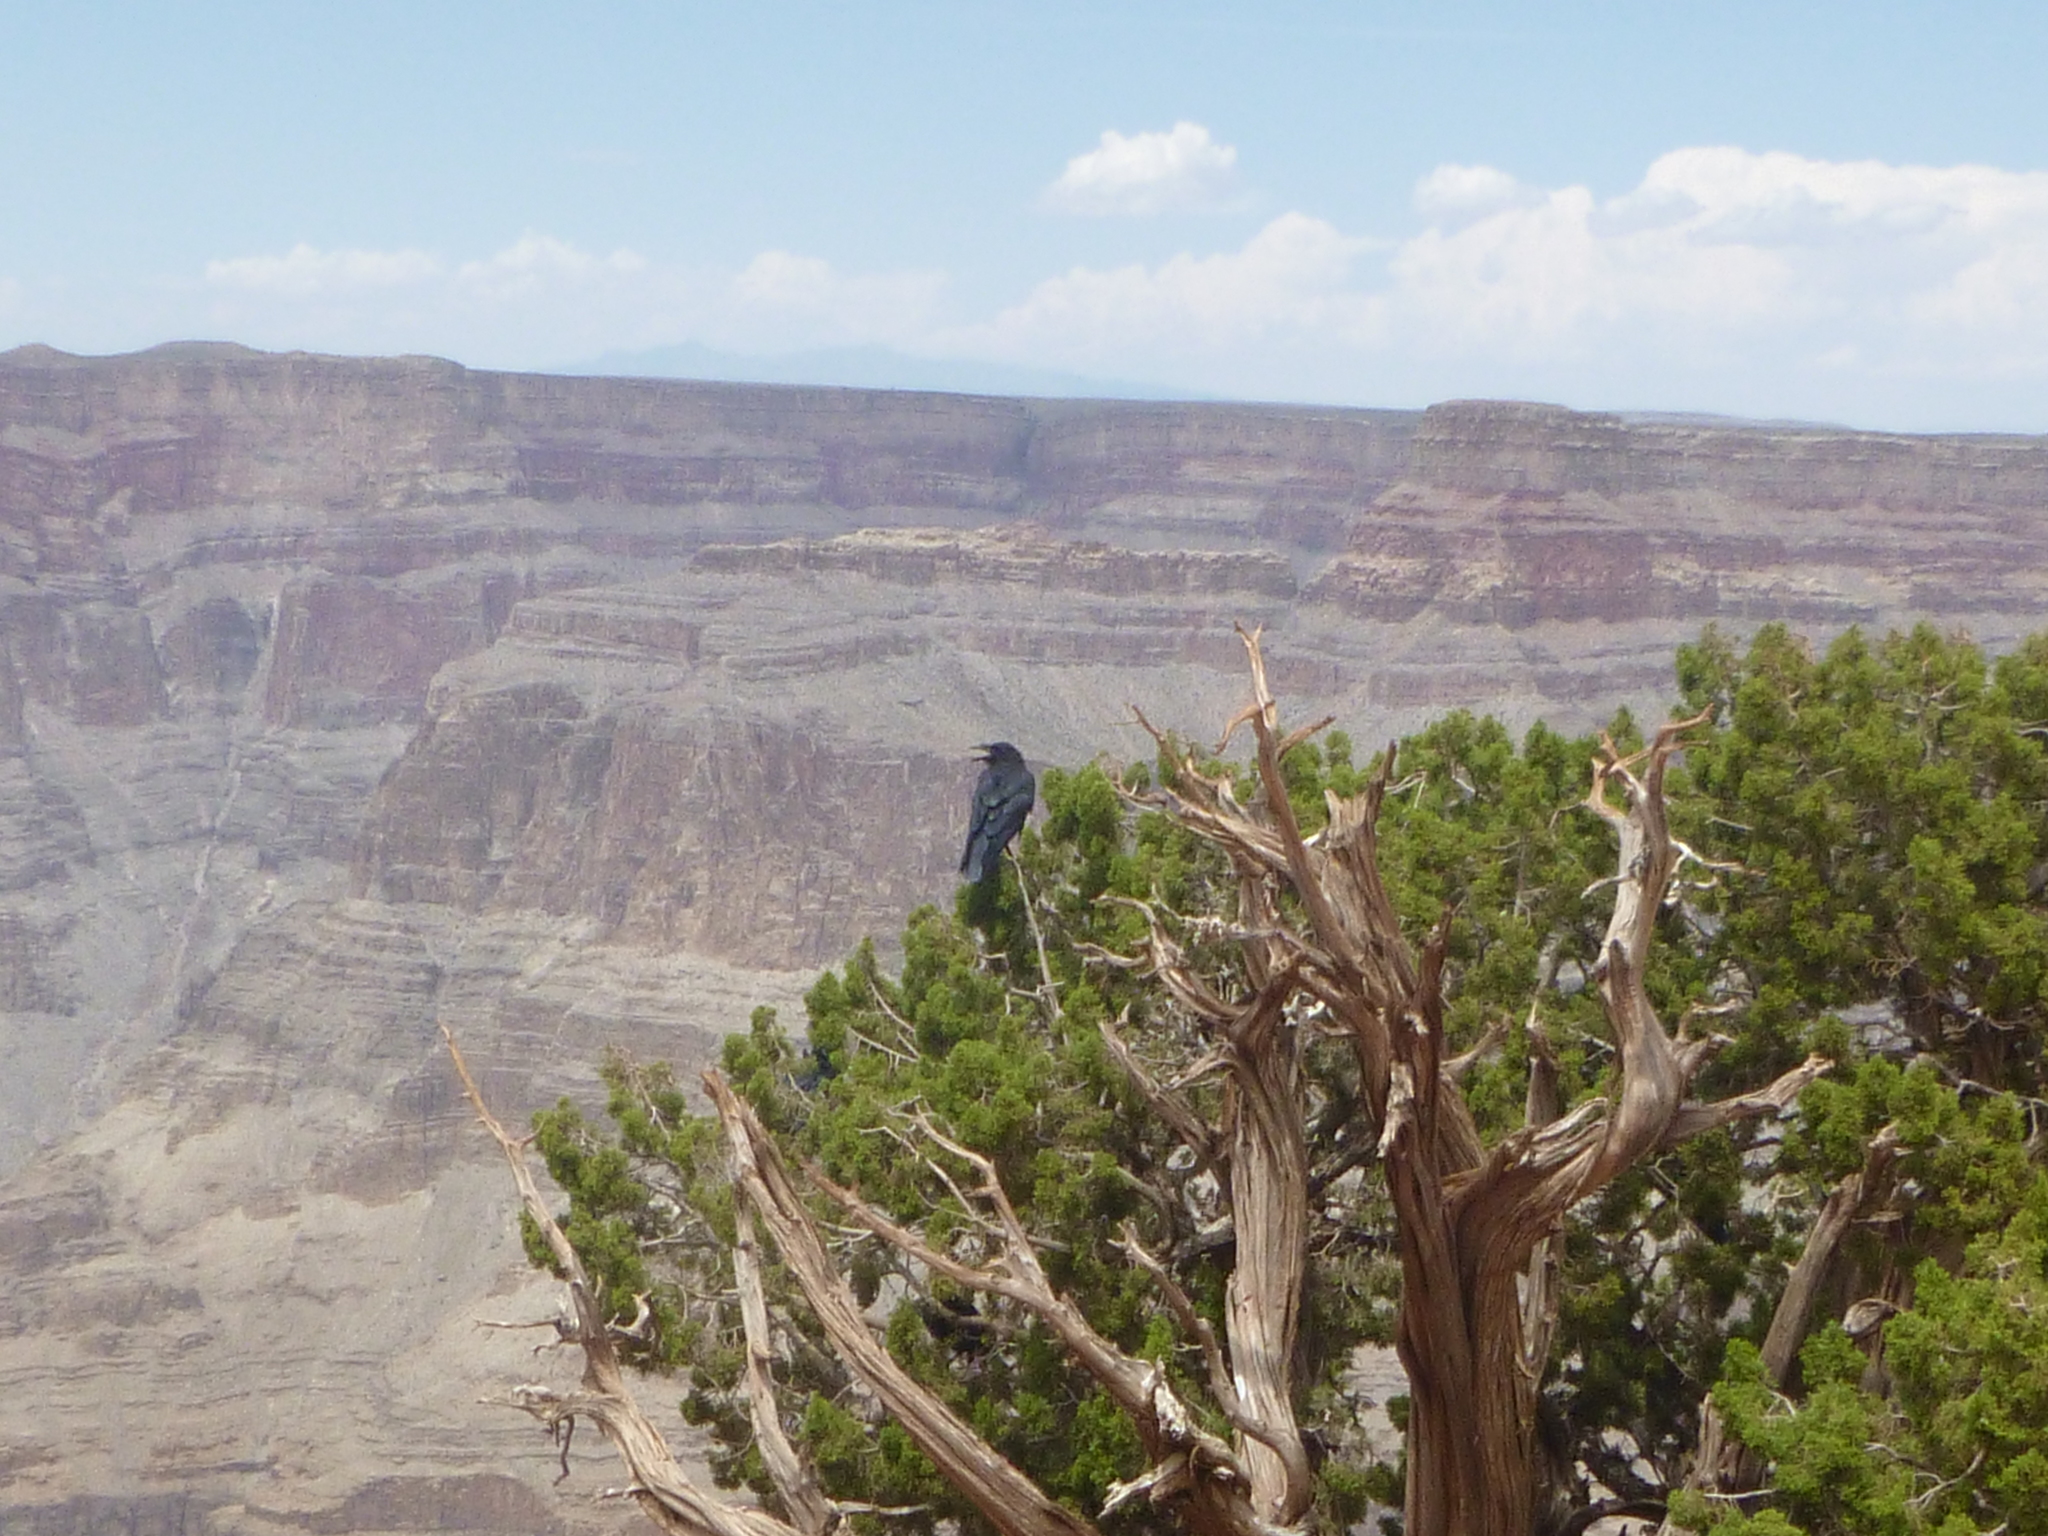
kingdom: Animalia
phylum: Chordata
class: Aves
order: Passeriformes
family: Corvidae
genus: Corvus
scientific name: Corvus corax
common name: Common raven
